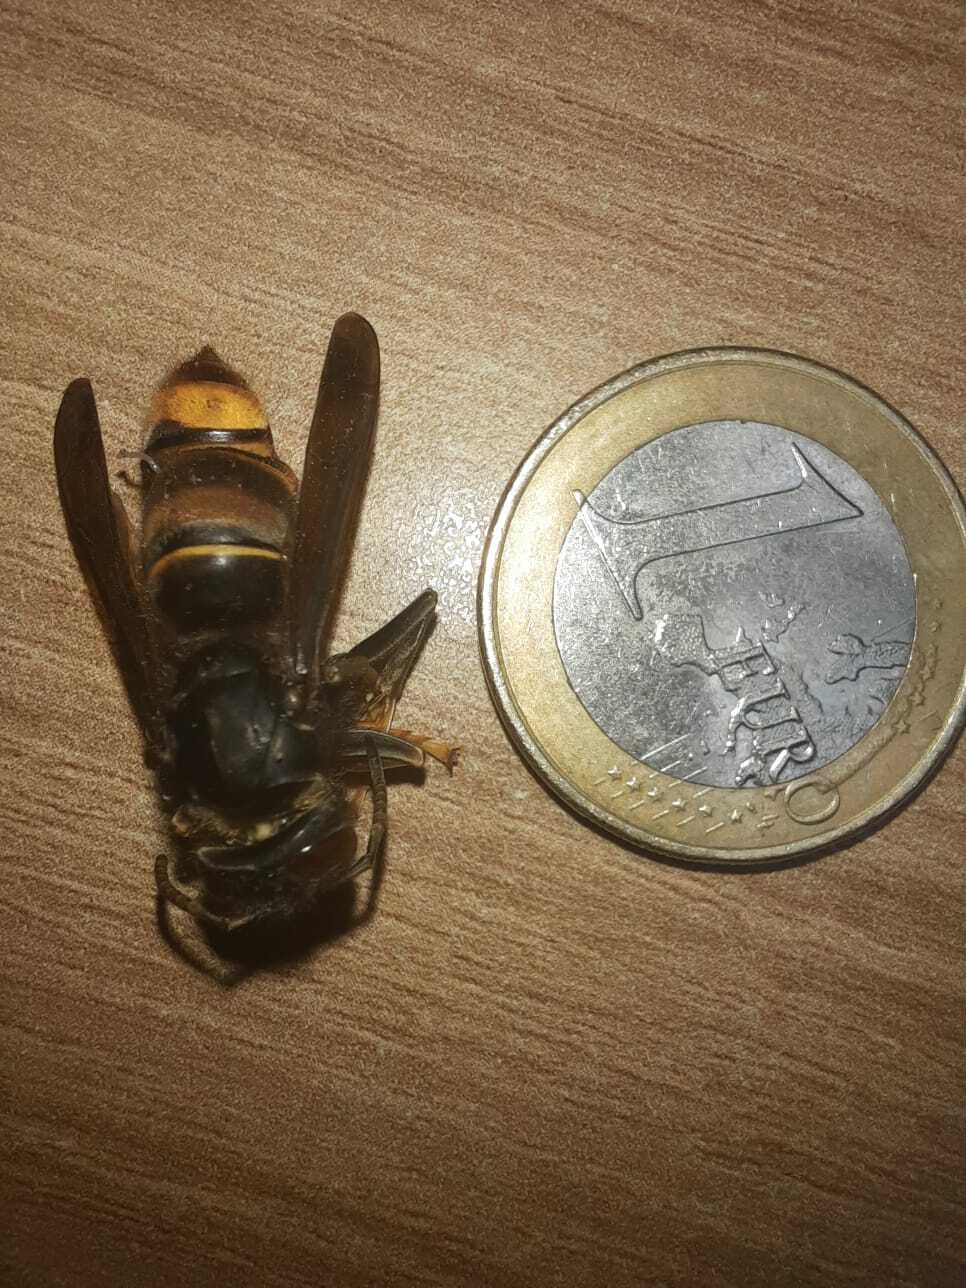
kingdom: Animalia
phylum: Arthropoda
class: Insecta
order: Hymenoptera
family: Vespidae
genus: Vespa
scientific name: Vespa velutina
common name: Asian hornet
